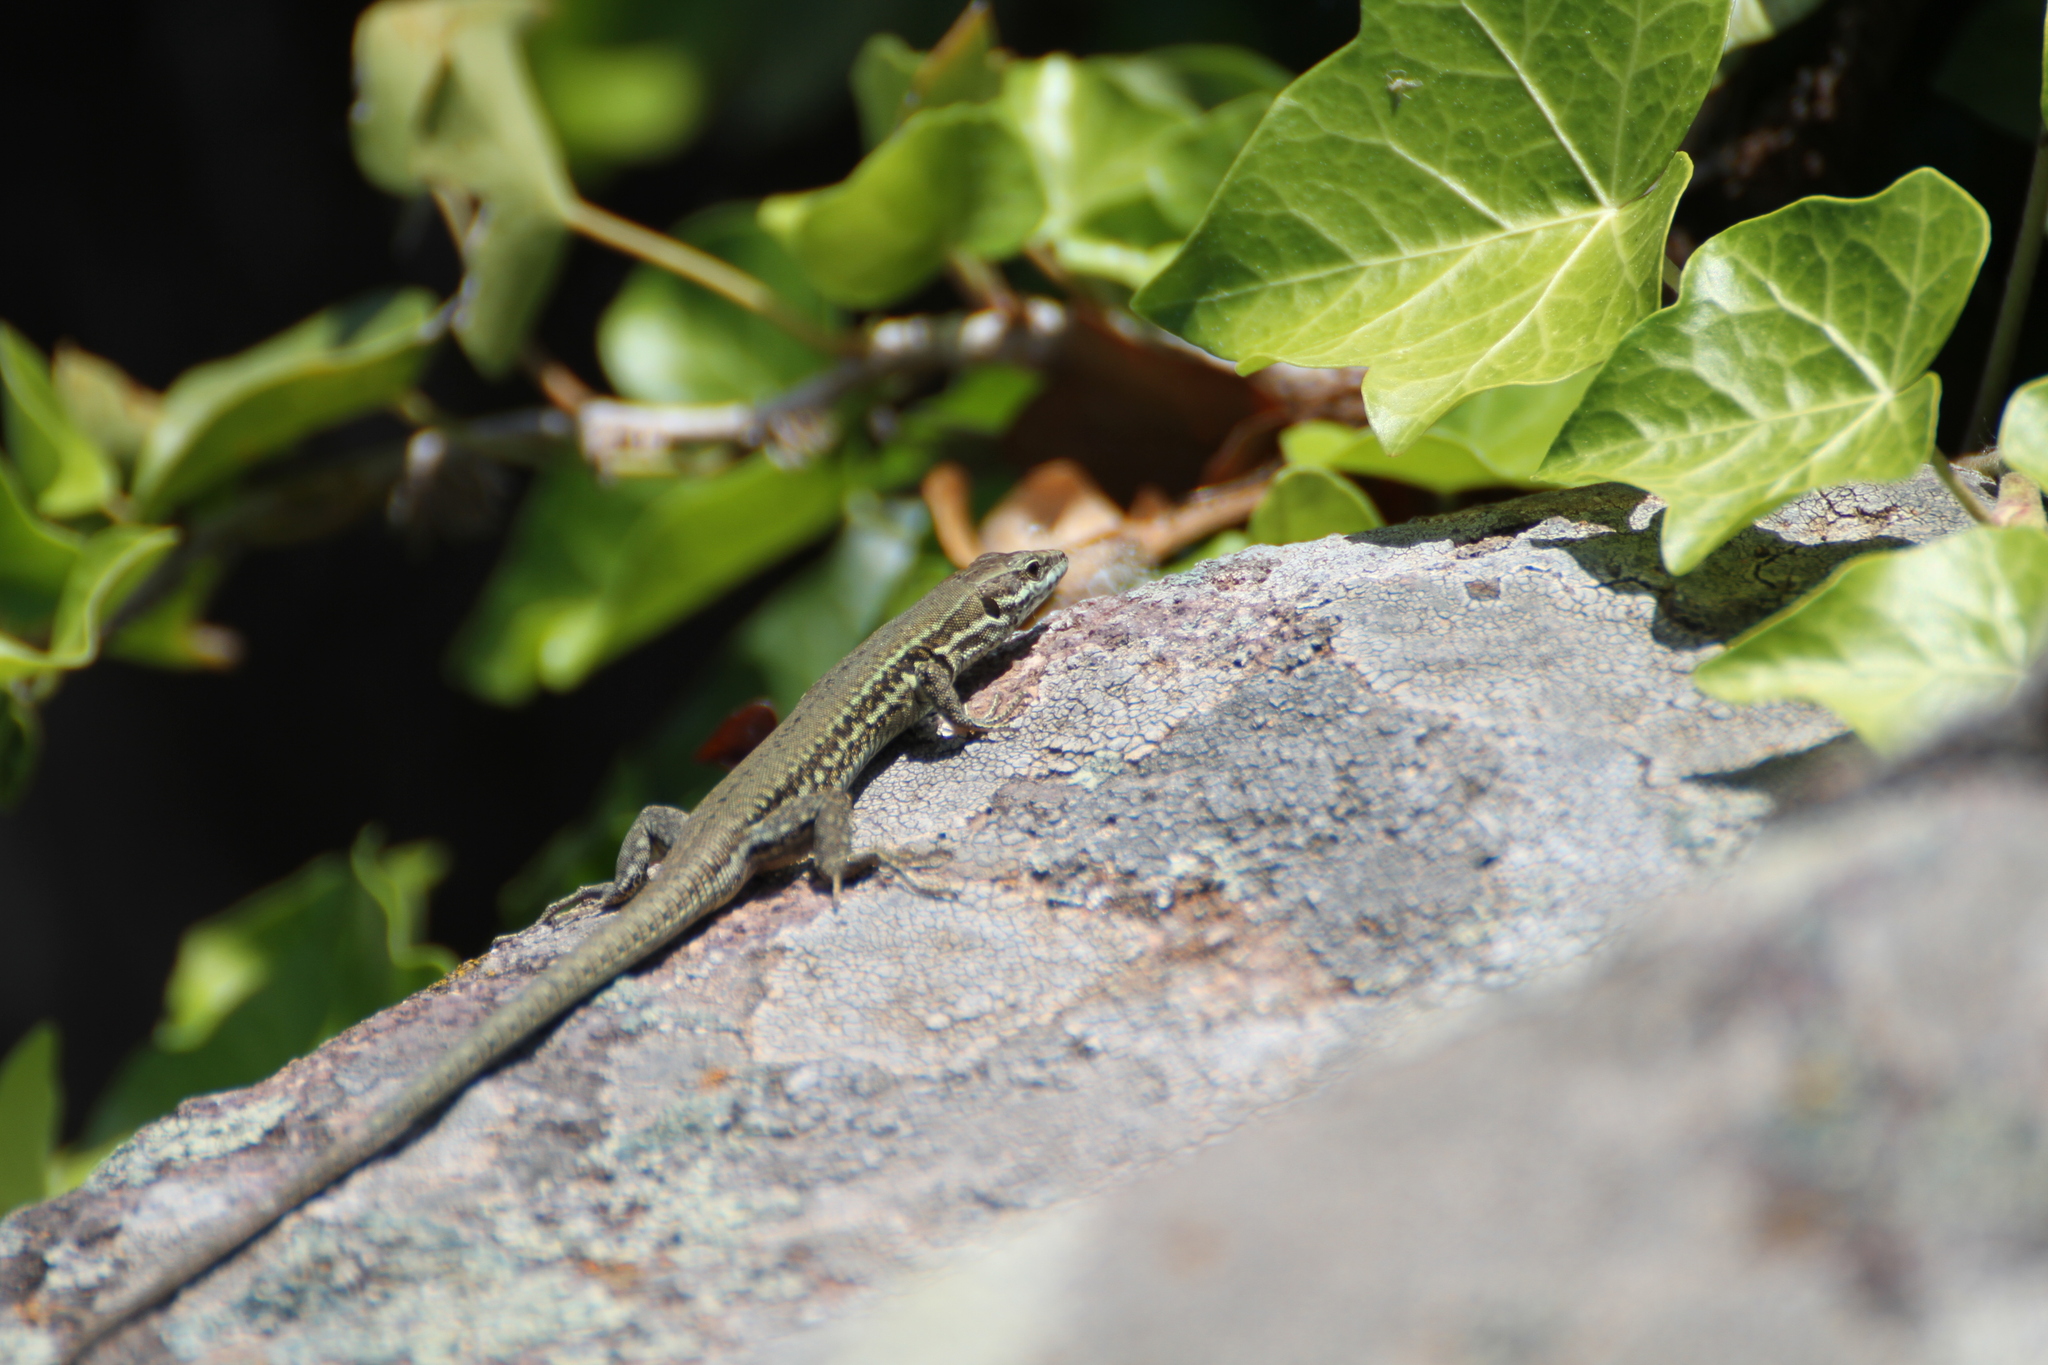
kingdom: Animalia
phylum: Chordata
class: Squamata
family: Lacertidae
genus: Podarcis
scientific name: Podarcis muralis
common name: Common wall lizard
